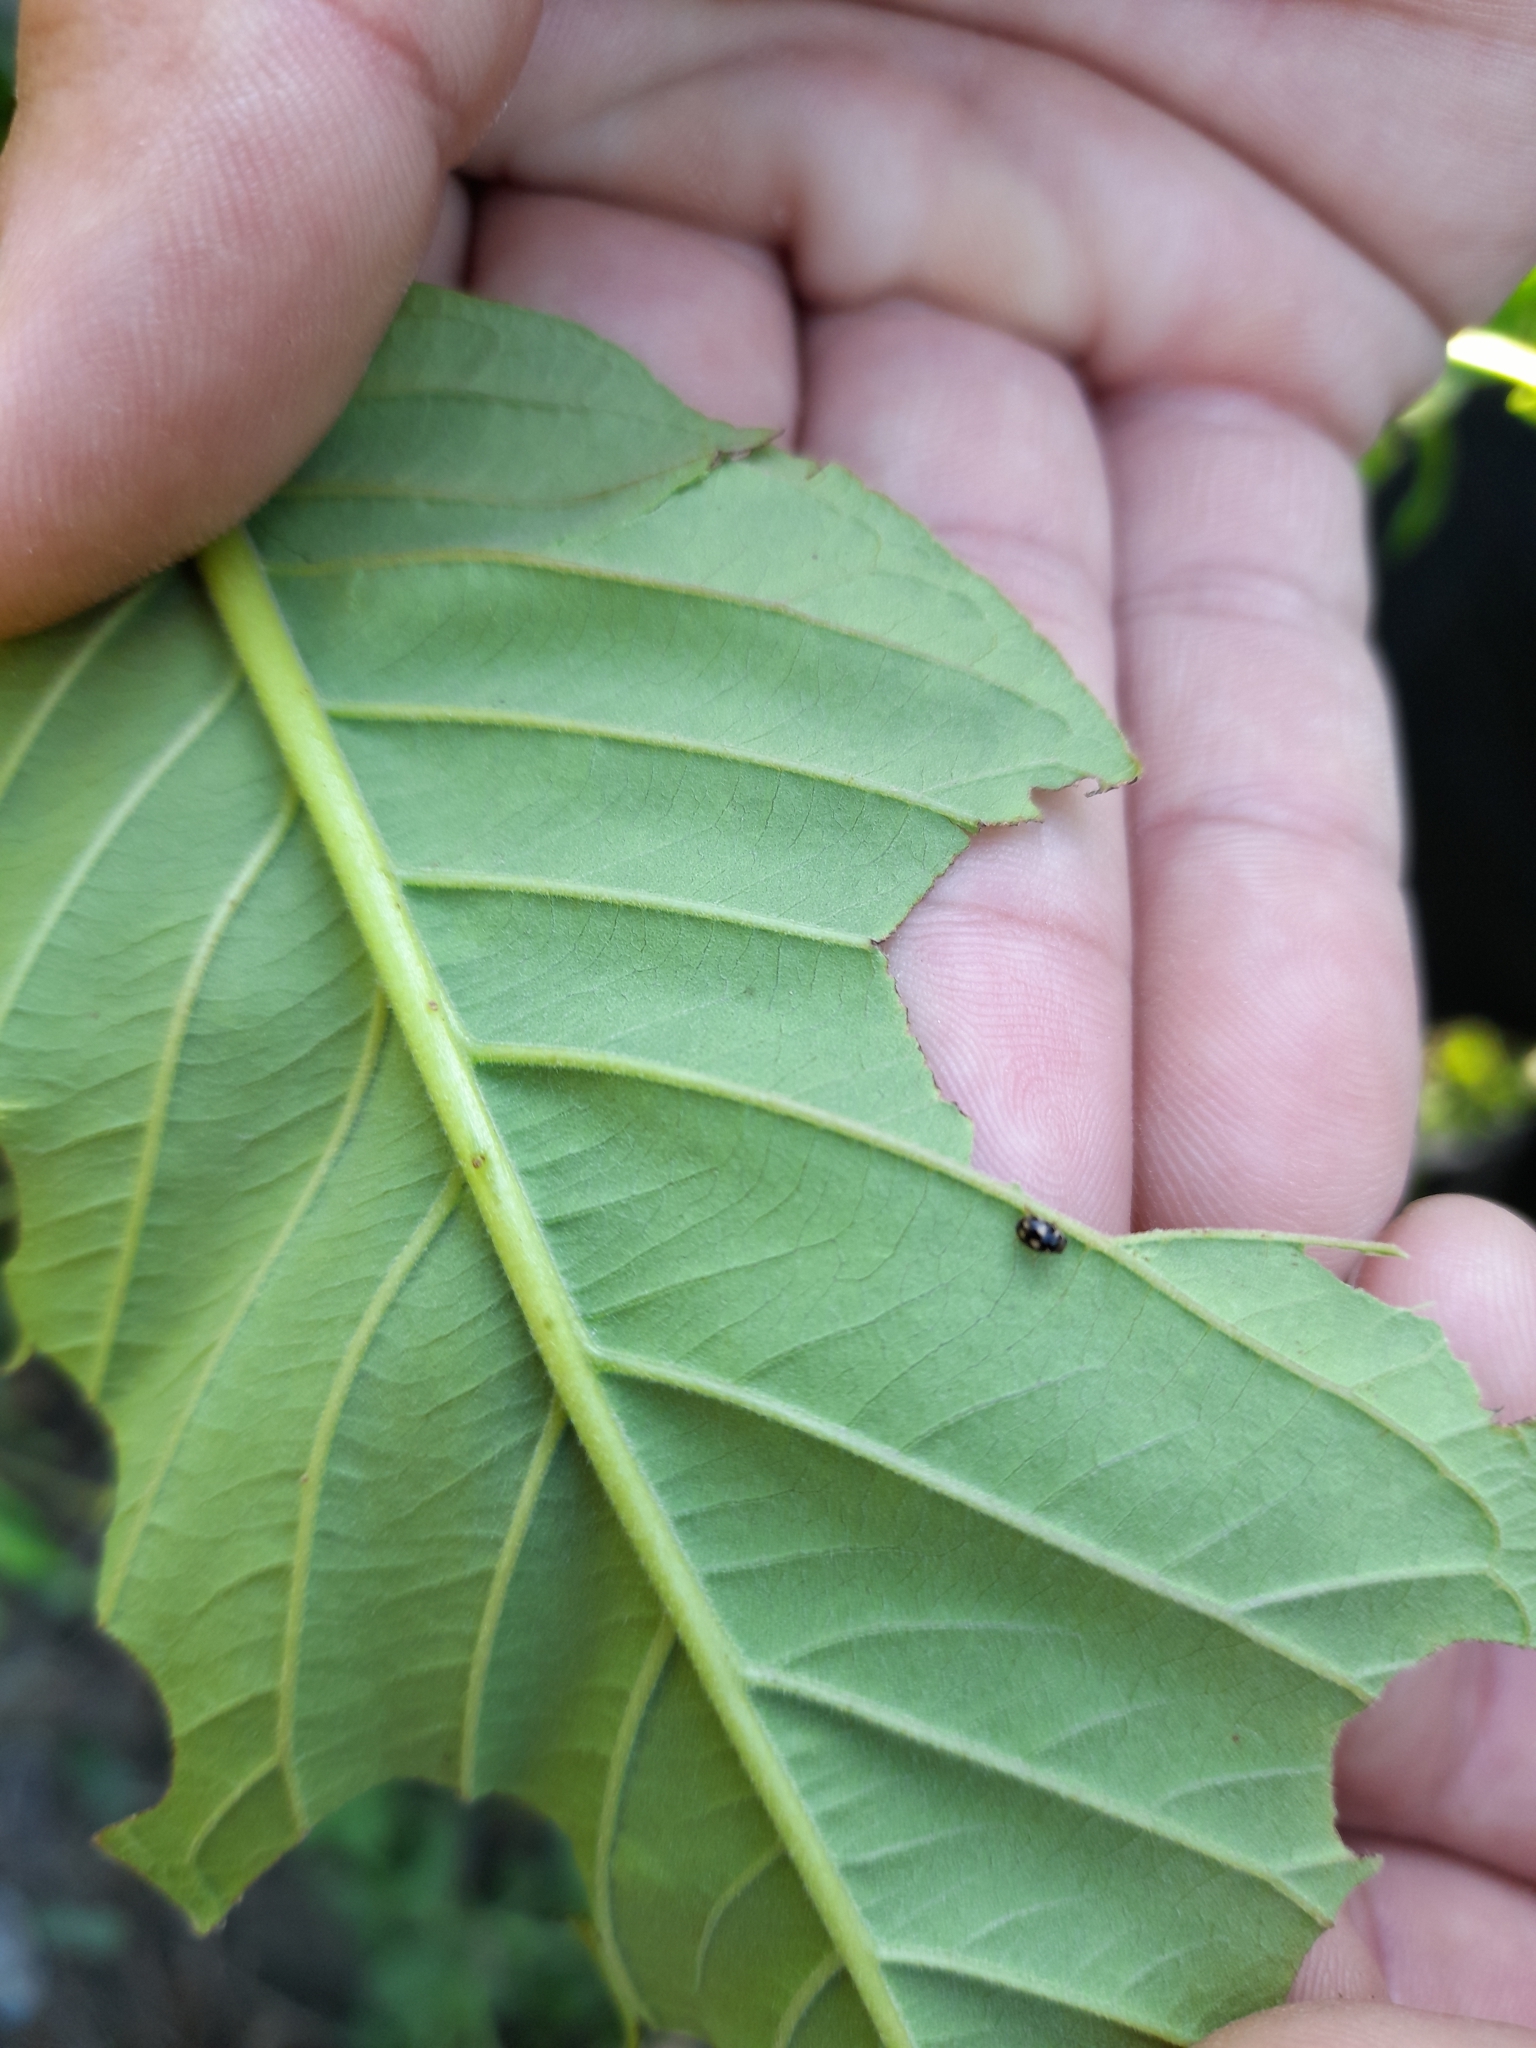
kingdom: Animalia
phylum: Arthropoda
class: Insecta
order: Coleoptera
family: Coccinellidae
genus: Hyperaspis
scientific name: Hyperaspis festiva
